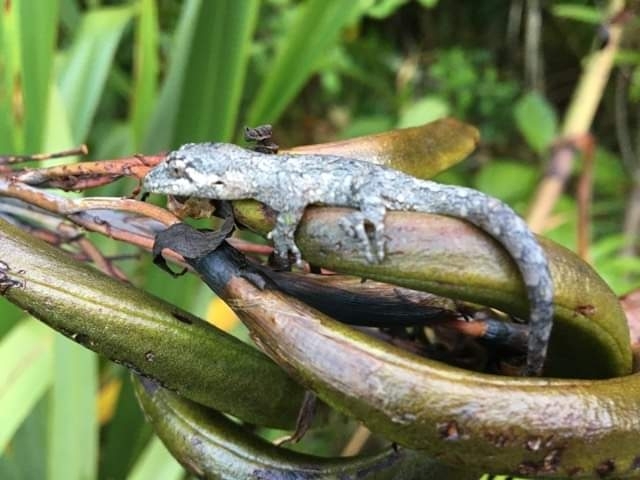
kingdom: Animalia
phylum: Chordata
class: Squamata
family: Diplodactylidae
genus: Mokopirirakau
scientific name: Mokopirirakau
